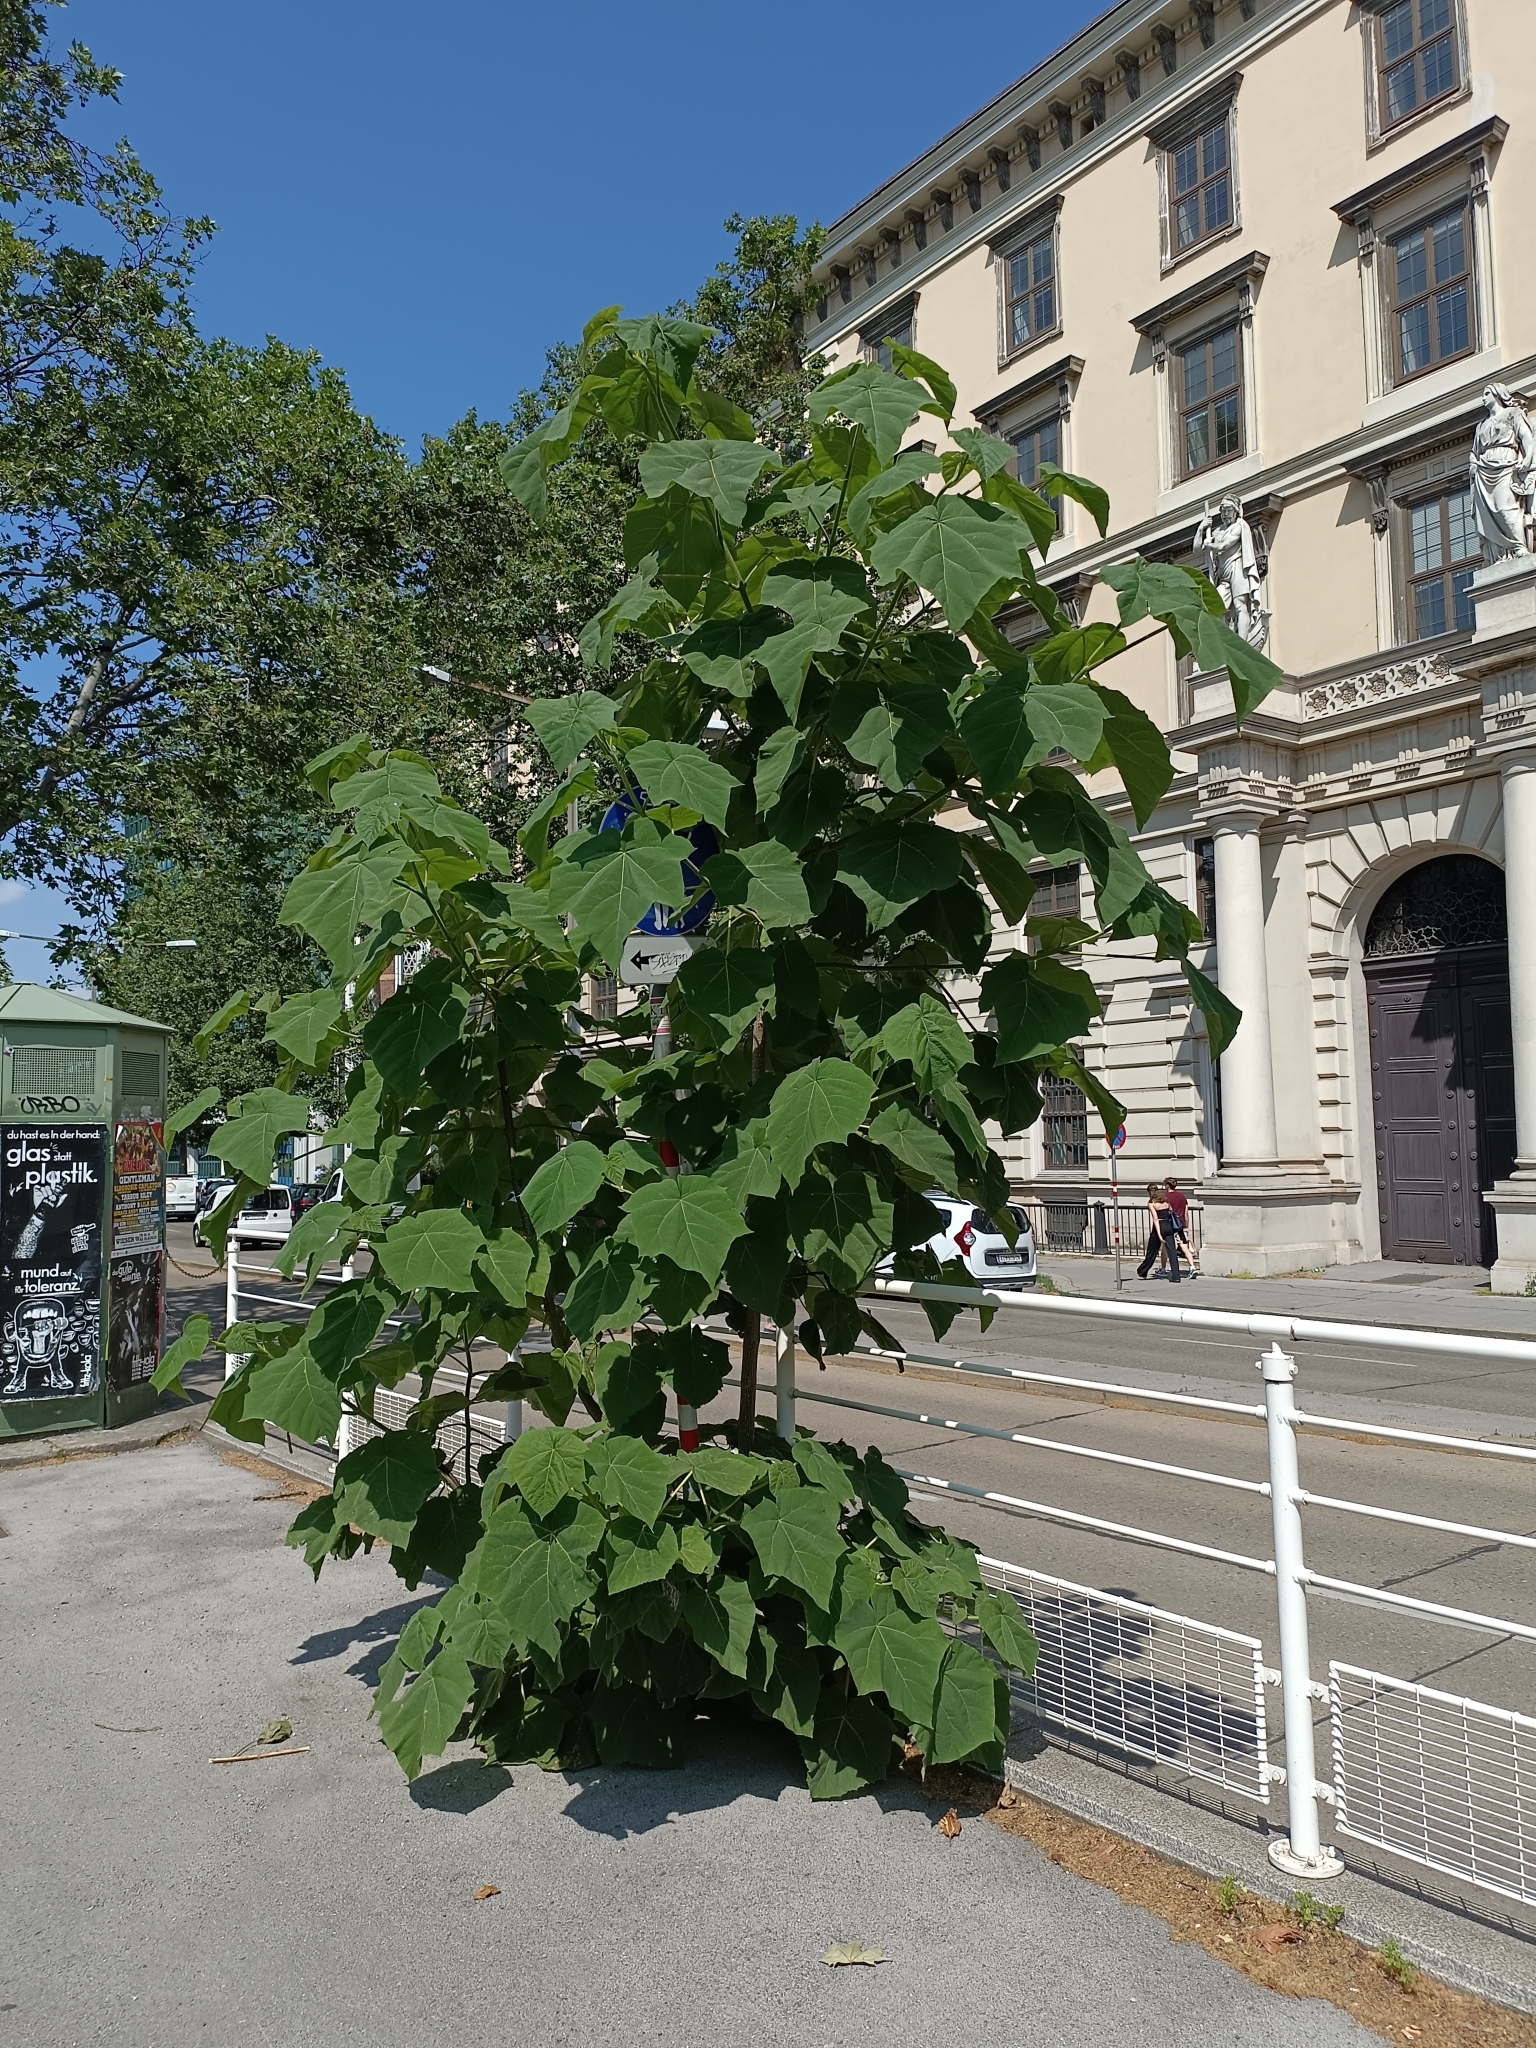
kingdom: Plantae
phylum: Tracheophyta
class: Magnoliopsida
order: Lamiales
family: Paulowniaceae
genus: Paulownia
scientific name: Paulownia tomentosa
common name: Foxglove-tree
